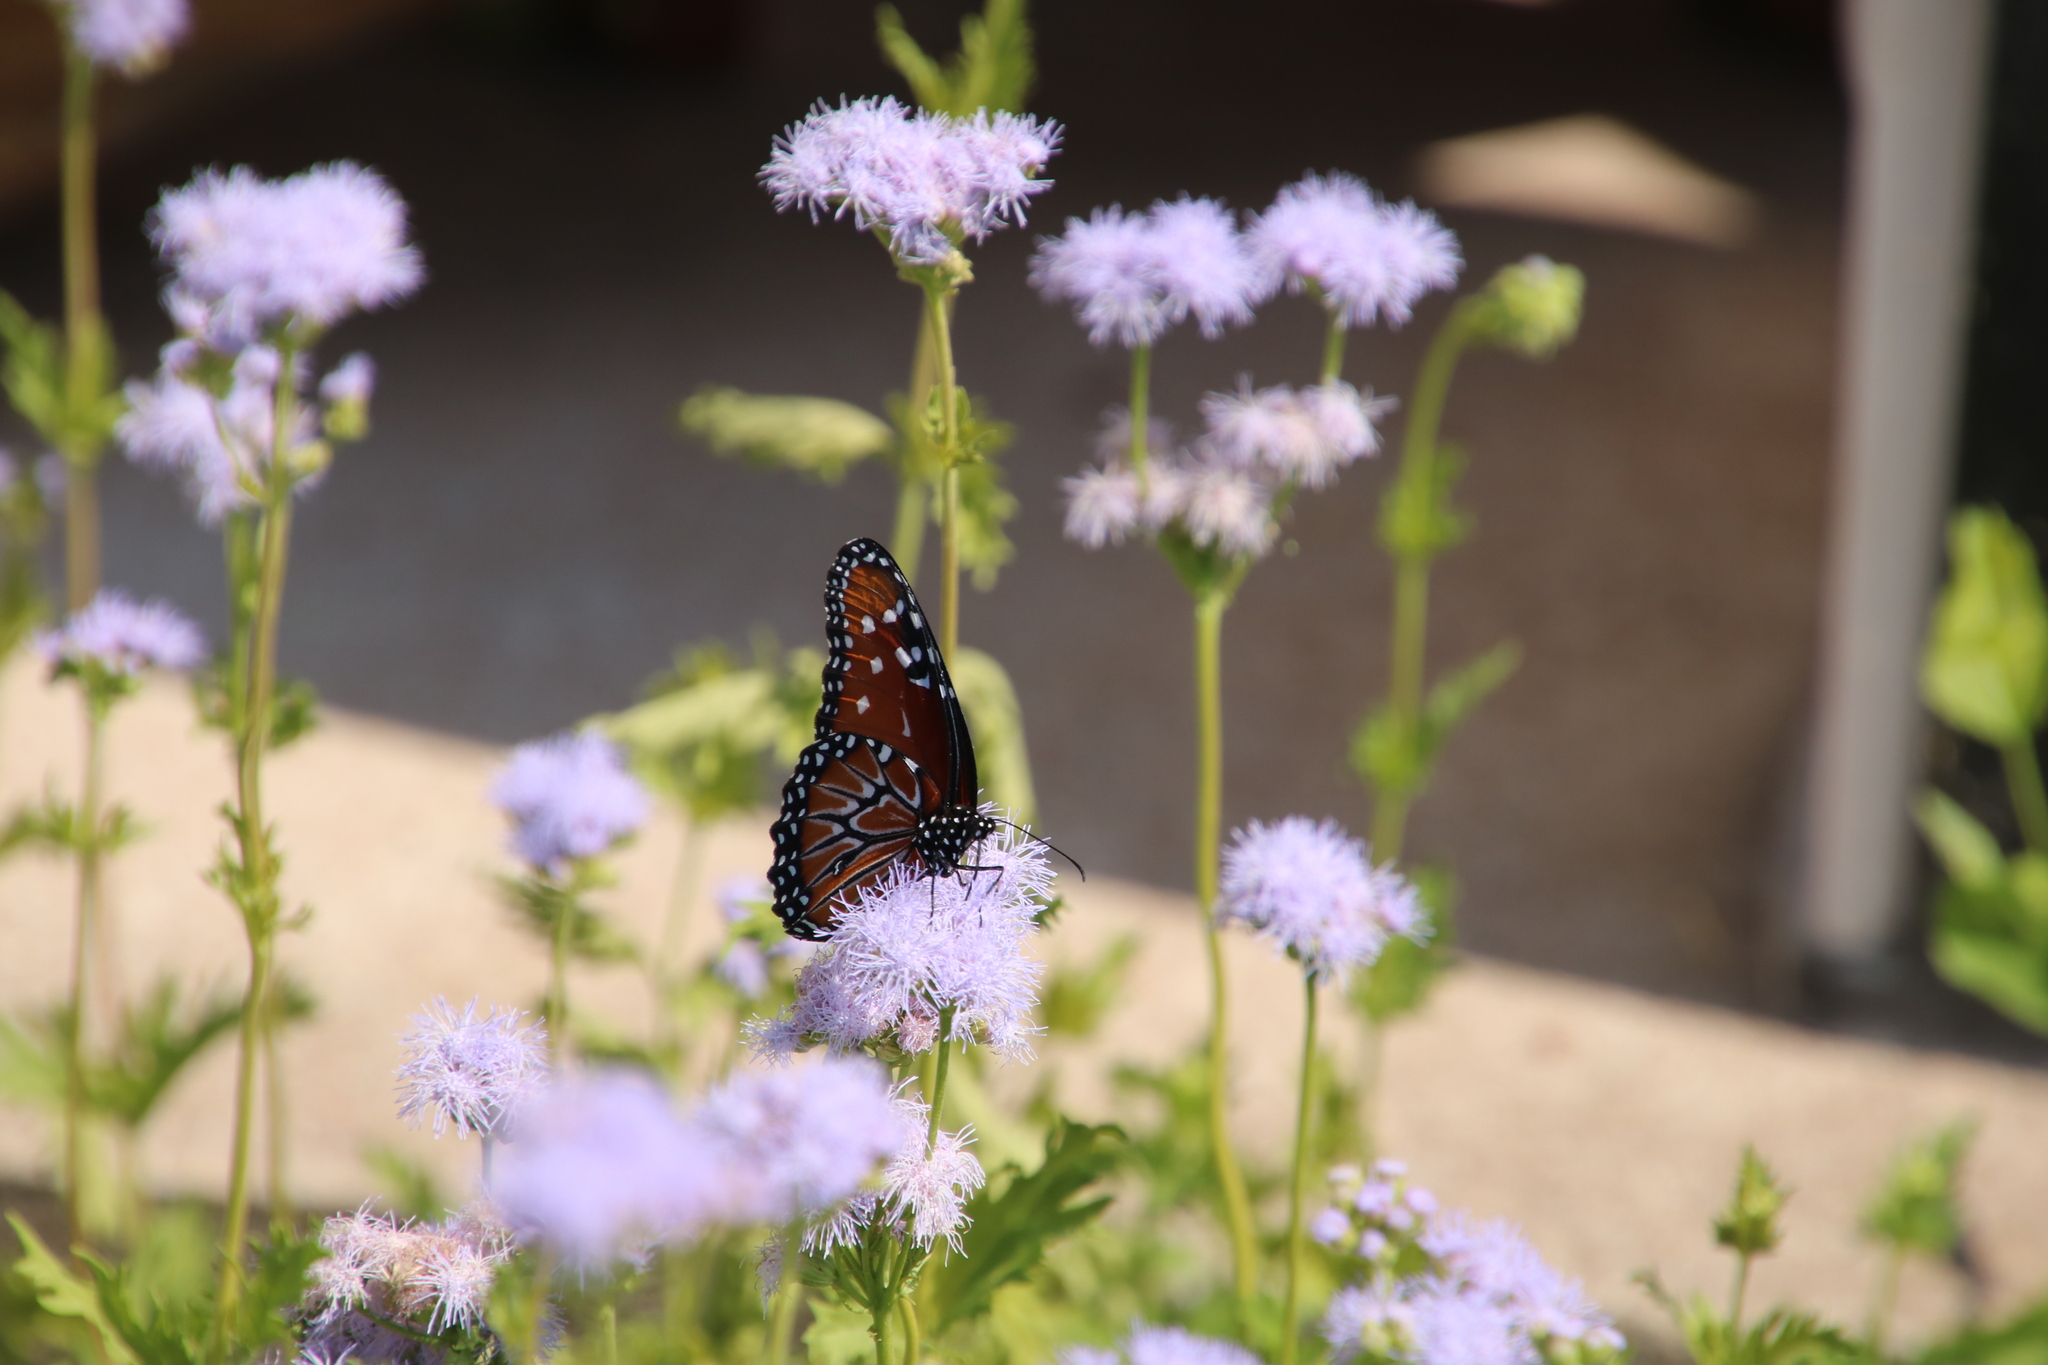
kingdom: Animalia
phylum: Arthropoda
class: Insecta
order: Lepidoptera
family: Nymphalidae
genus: Danaus
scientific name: Danaus gilippus
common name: Queen
